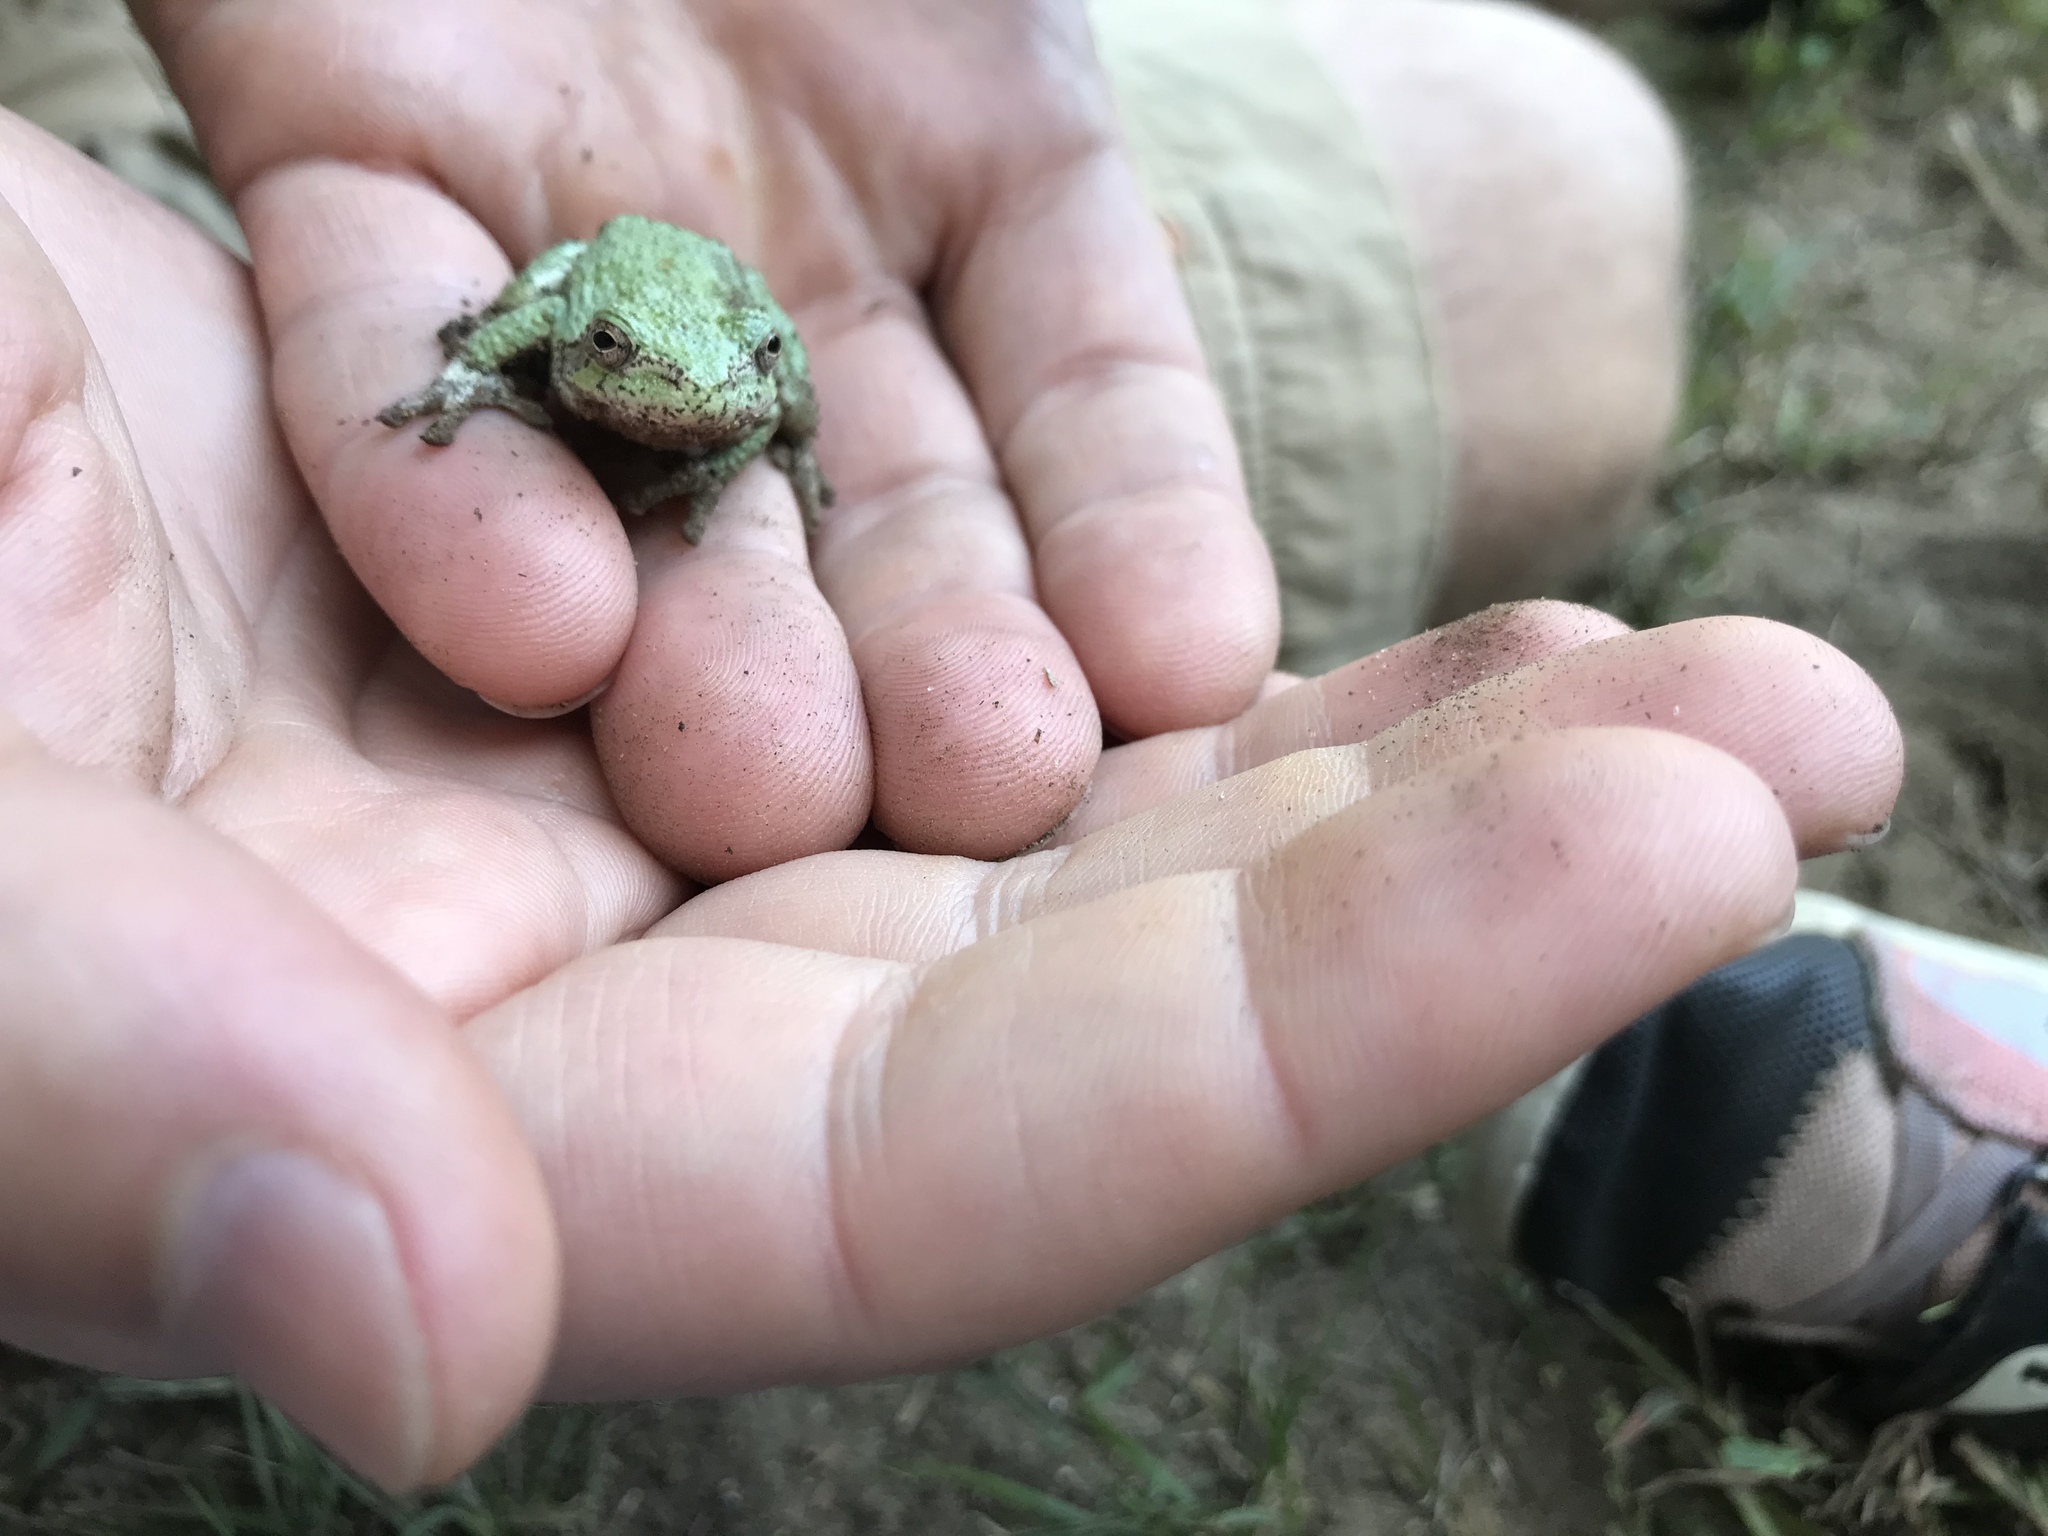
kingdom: Animalia
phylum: Chordata
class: Amphibia
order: Anura
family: Hylidae
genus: Dryophytes
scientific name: Dryophytes versicolor
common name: Gray treefrog
